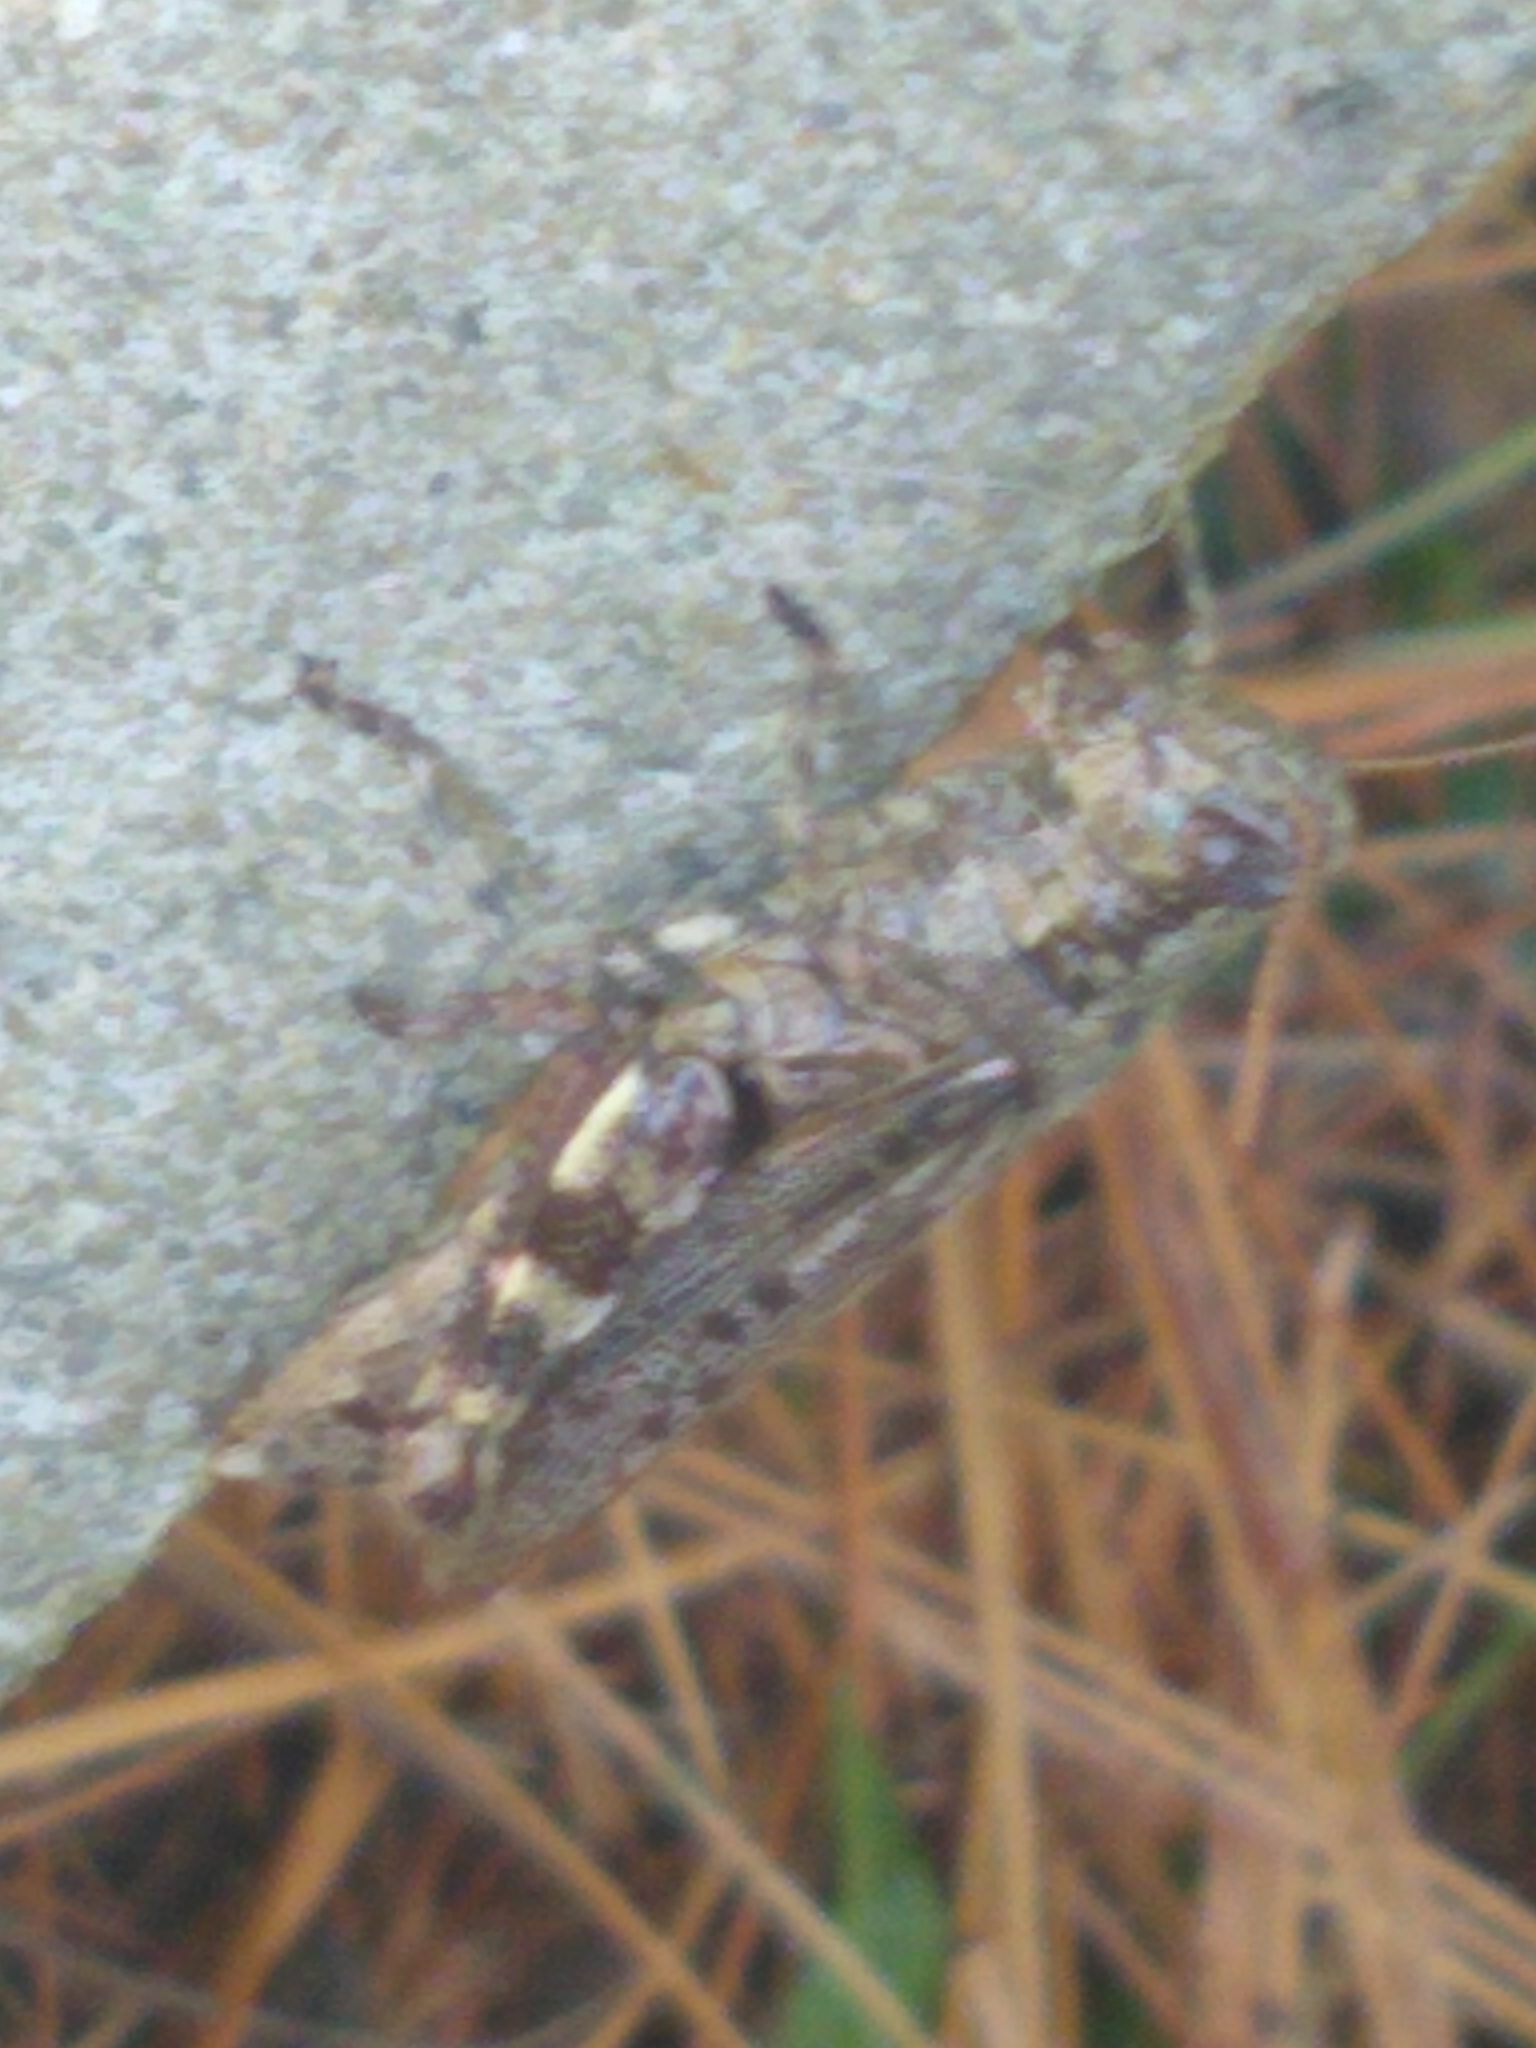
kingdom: Animalia
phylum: Arthropoda
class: Insecta
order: Orthoptera
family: Acrididae
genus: Melanoplus
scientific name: Melanoplus punctulatus
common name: Pine-tree spur-throat grasshopper
